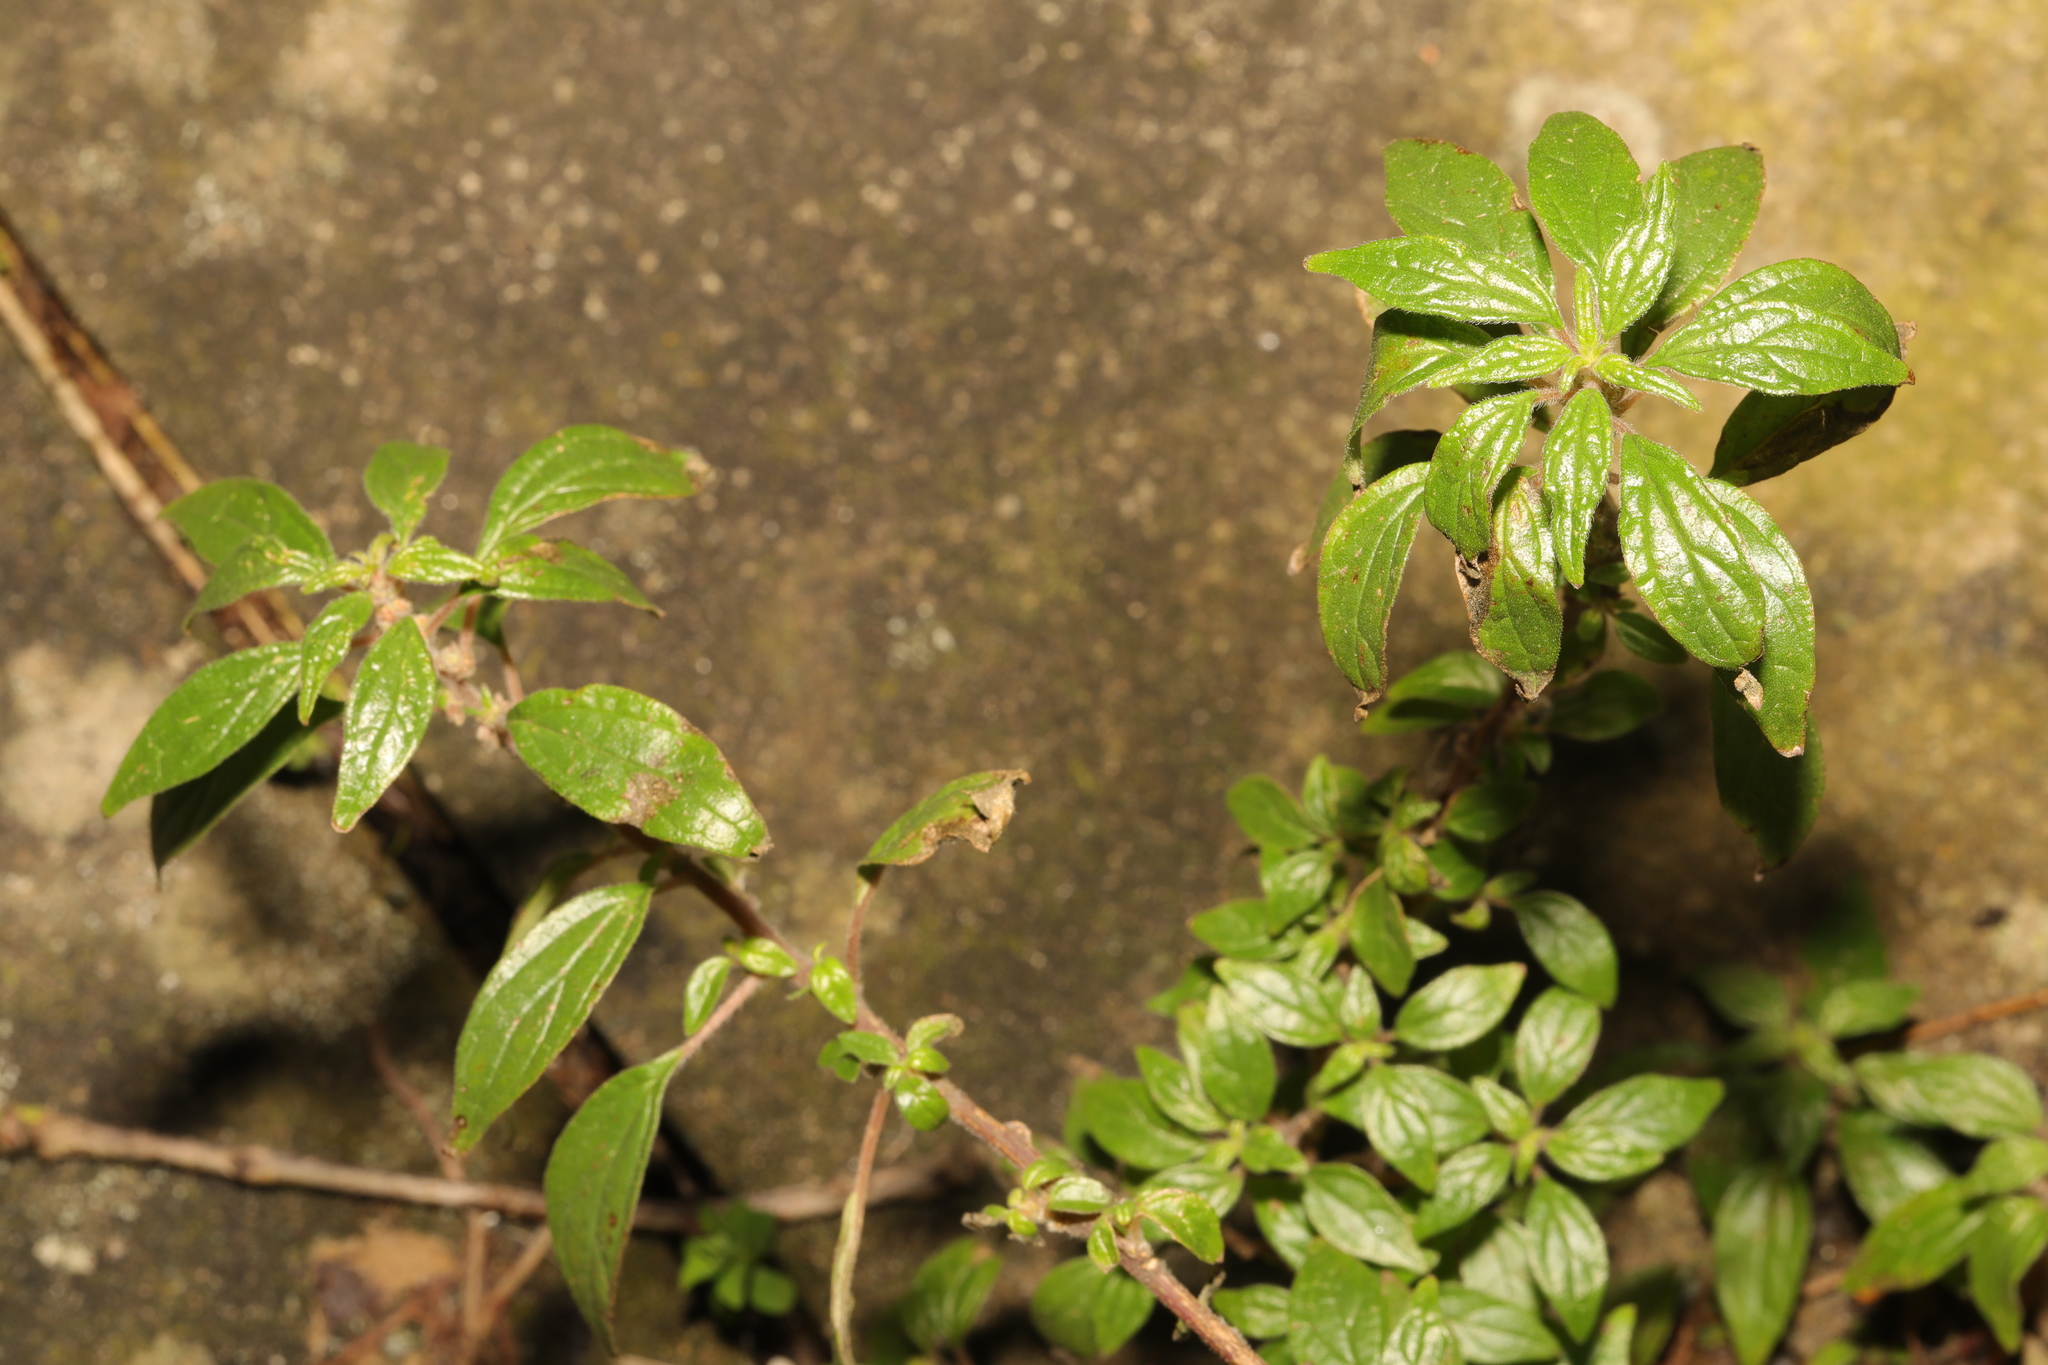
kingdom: Plantae
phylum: Tracheophyta
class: Magnoliopsida
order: Rosales
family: Urticaceae
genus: Parietaria
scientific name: Parietaria judaica
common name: Pellitory-of-the-wall
